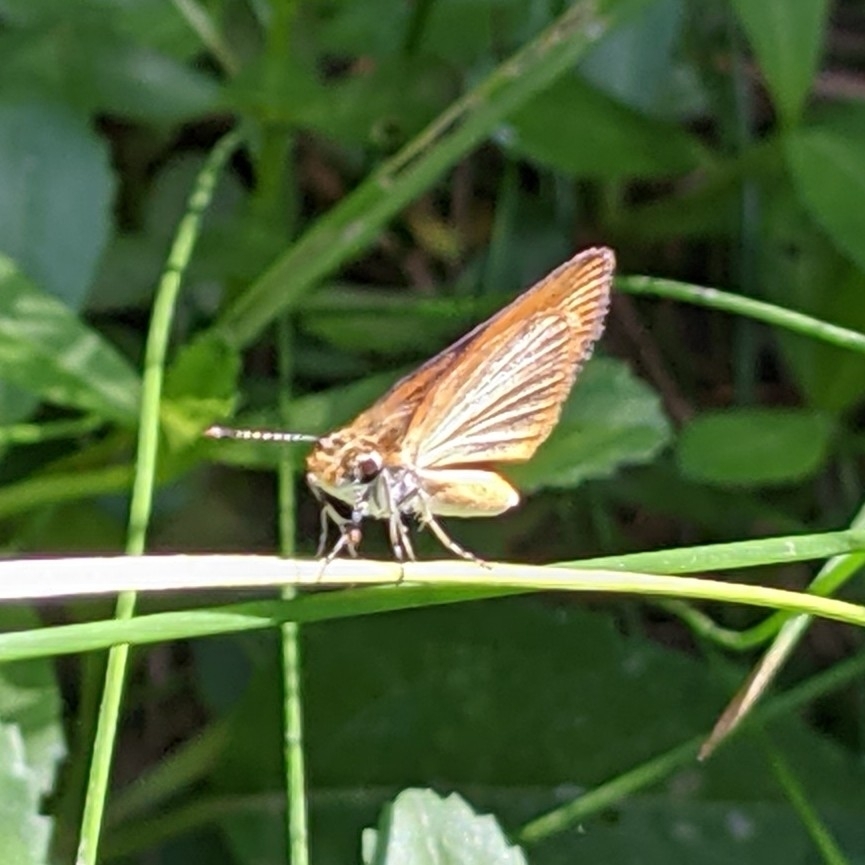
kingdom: Animalia
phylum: Arthropoda
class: Insecta
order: Lepidoptera
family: Hesperiidae
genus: Ancyloxypha
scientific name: Ancyloxypha numitor
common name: Least skipper
